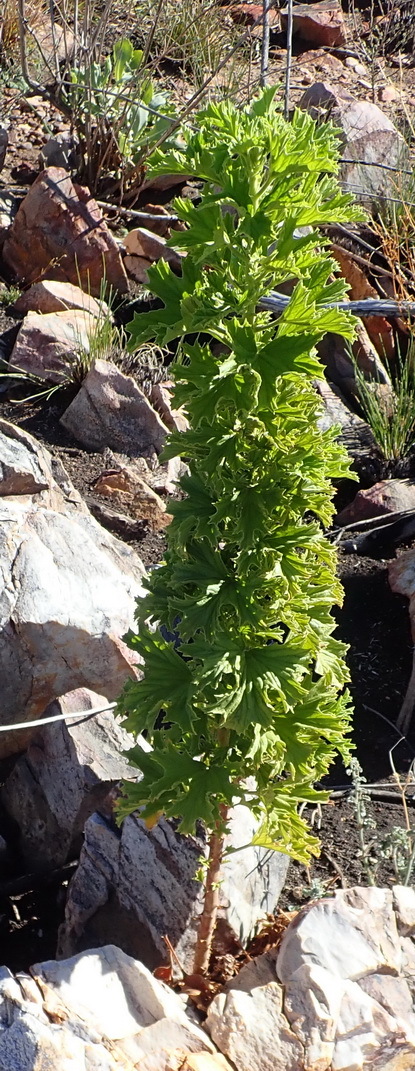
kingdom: Plantae
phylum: Tracheophyta
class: Magnoliopsida
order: Geraniales
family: Geraniaceae
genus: Pelargonium
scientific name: Pelargonium ribifolium
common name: Currant-leaf pelargonium
